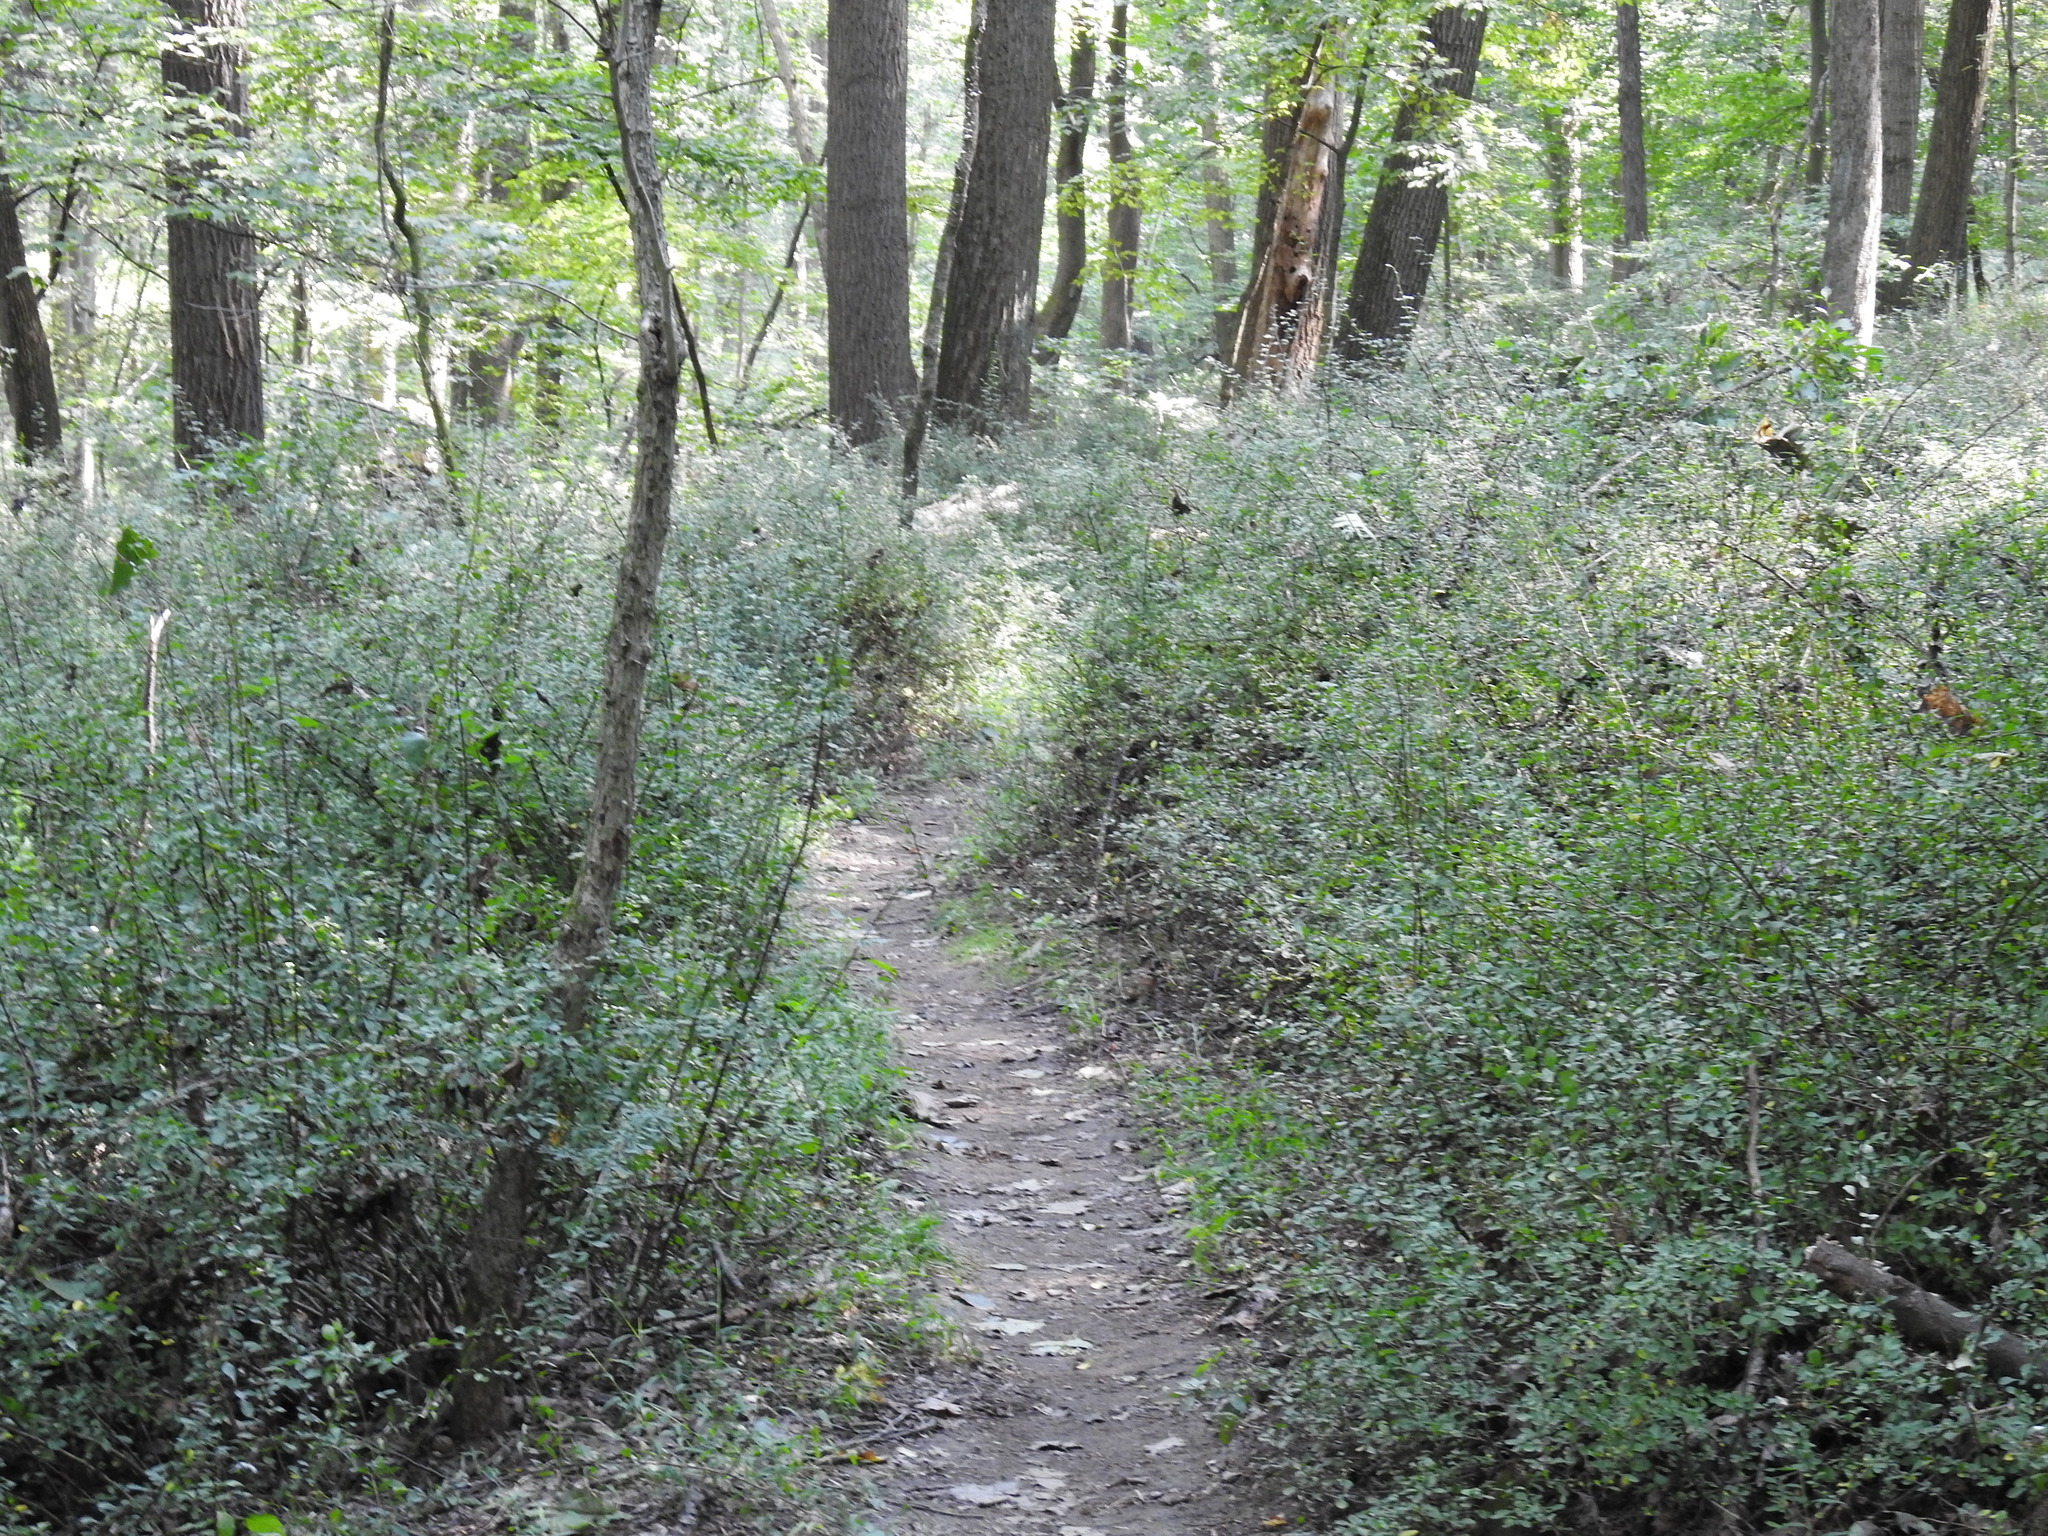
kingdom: Plantae
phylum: Tracheophyta
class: Magnoliopsida
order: Ranunculales
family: Berberidaceae
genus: Berberis
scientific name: Berberis thunbergii
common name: Japanese barberry
